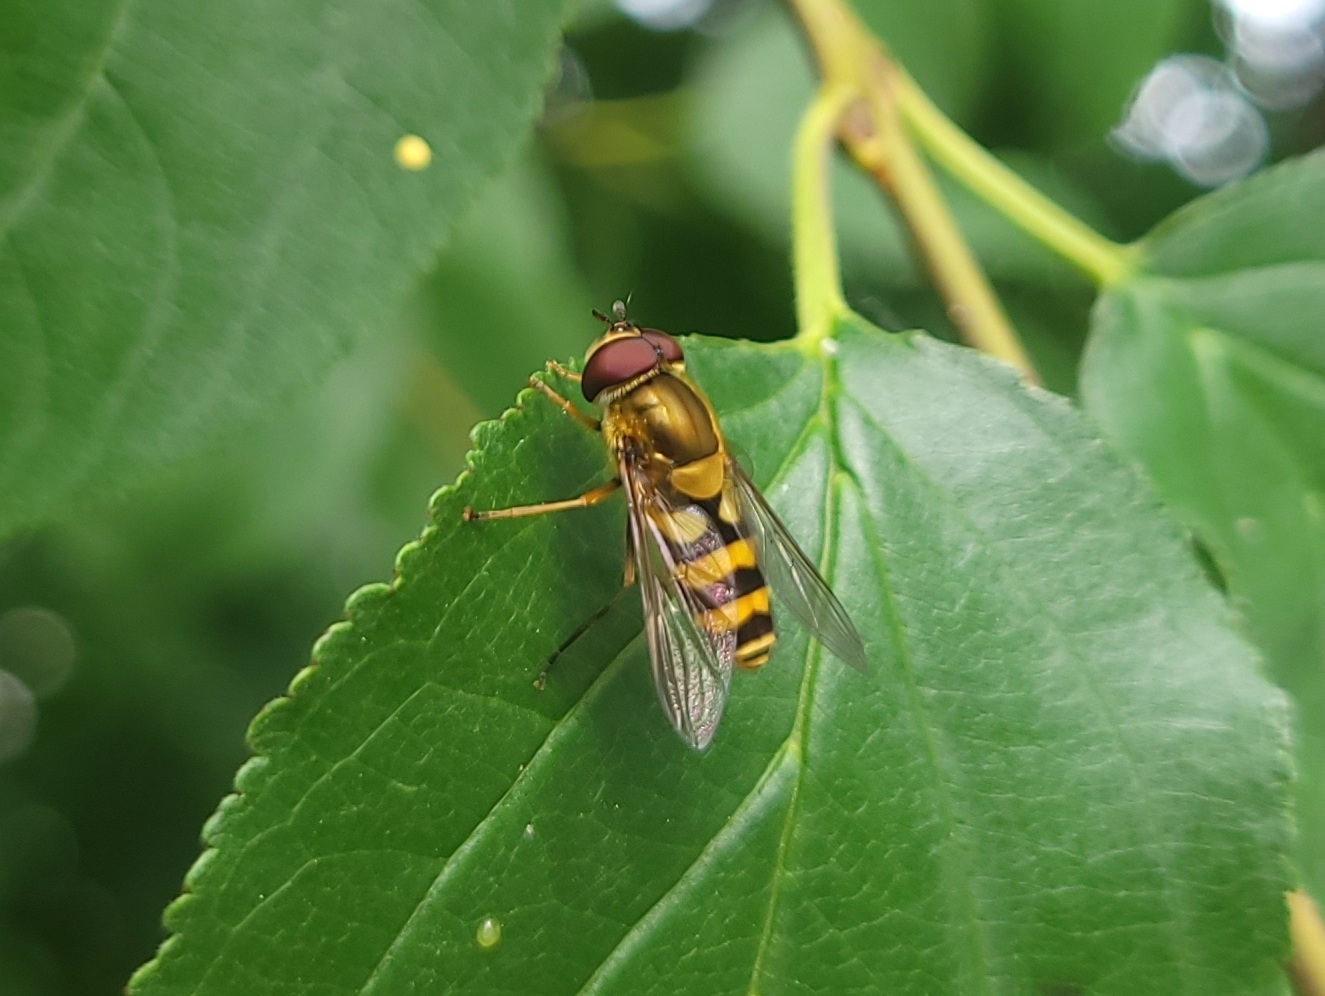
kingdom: Animalia
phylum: Arthropoda
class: Insecta
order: Diptera
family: Syrphidae
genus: Syrphus
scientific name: Syrphus
